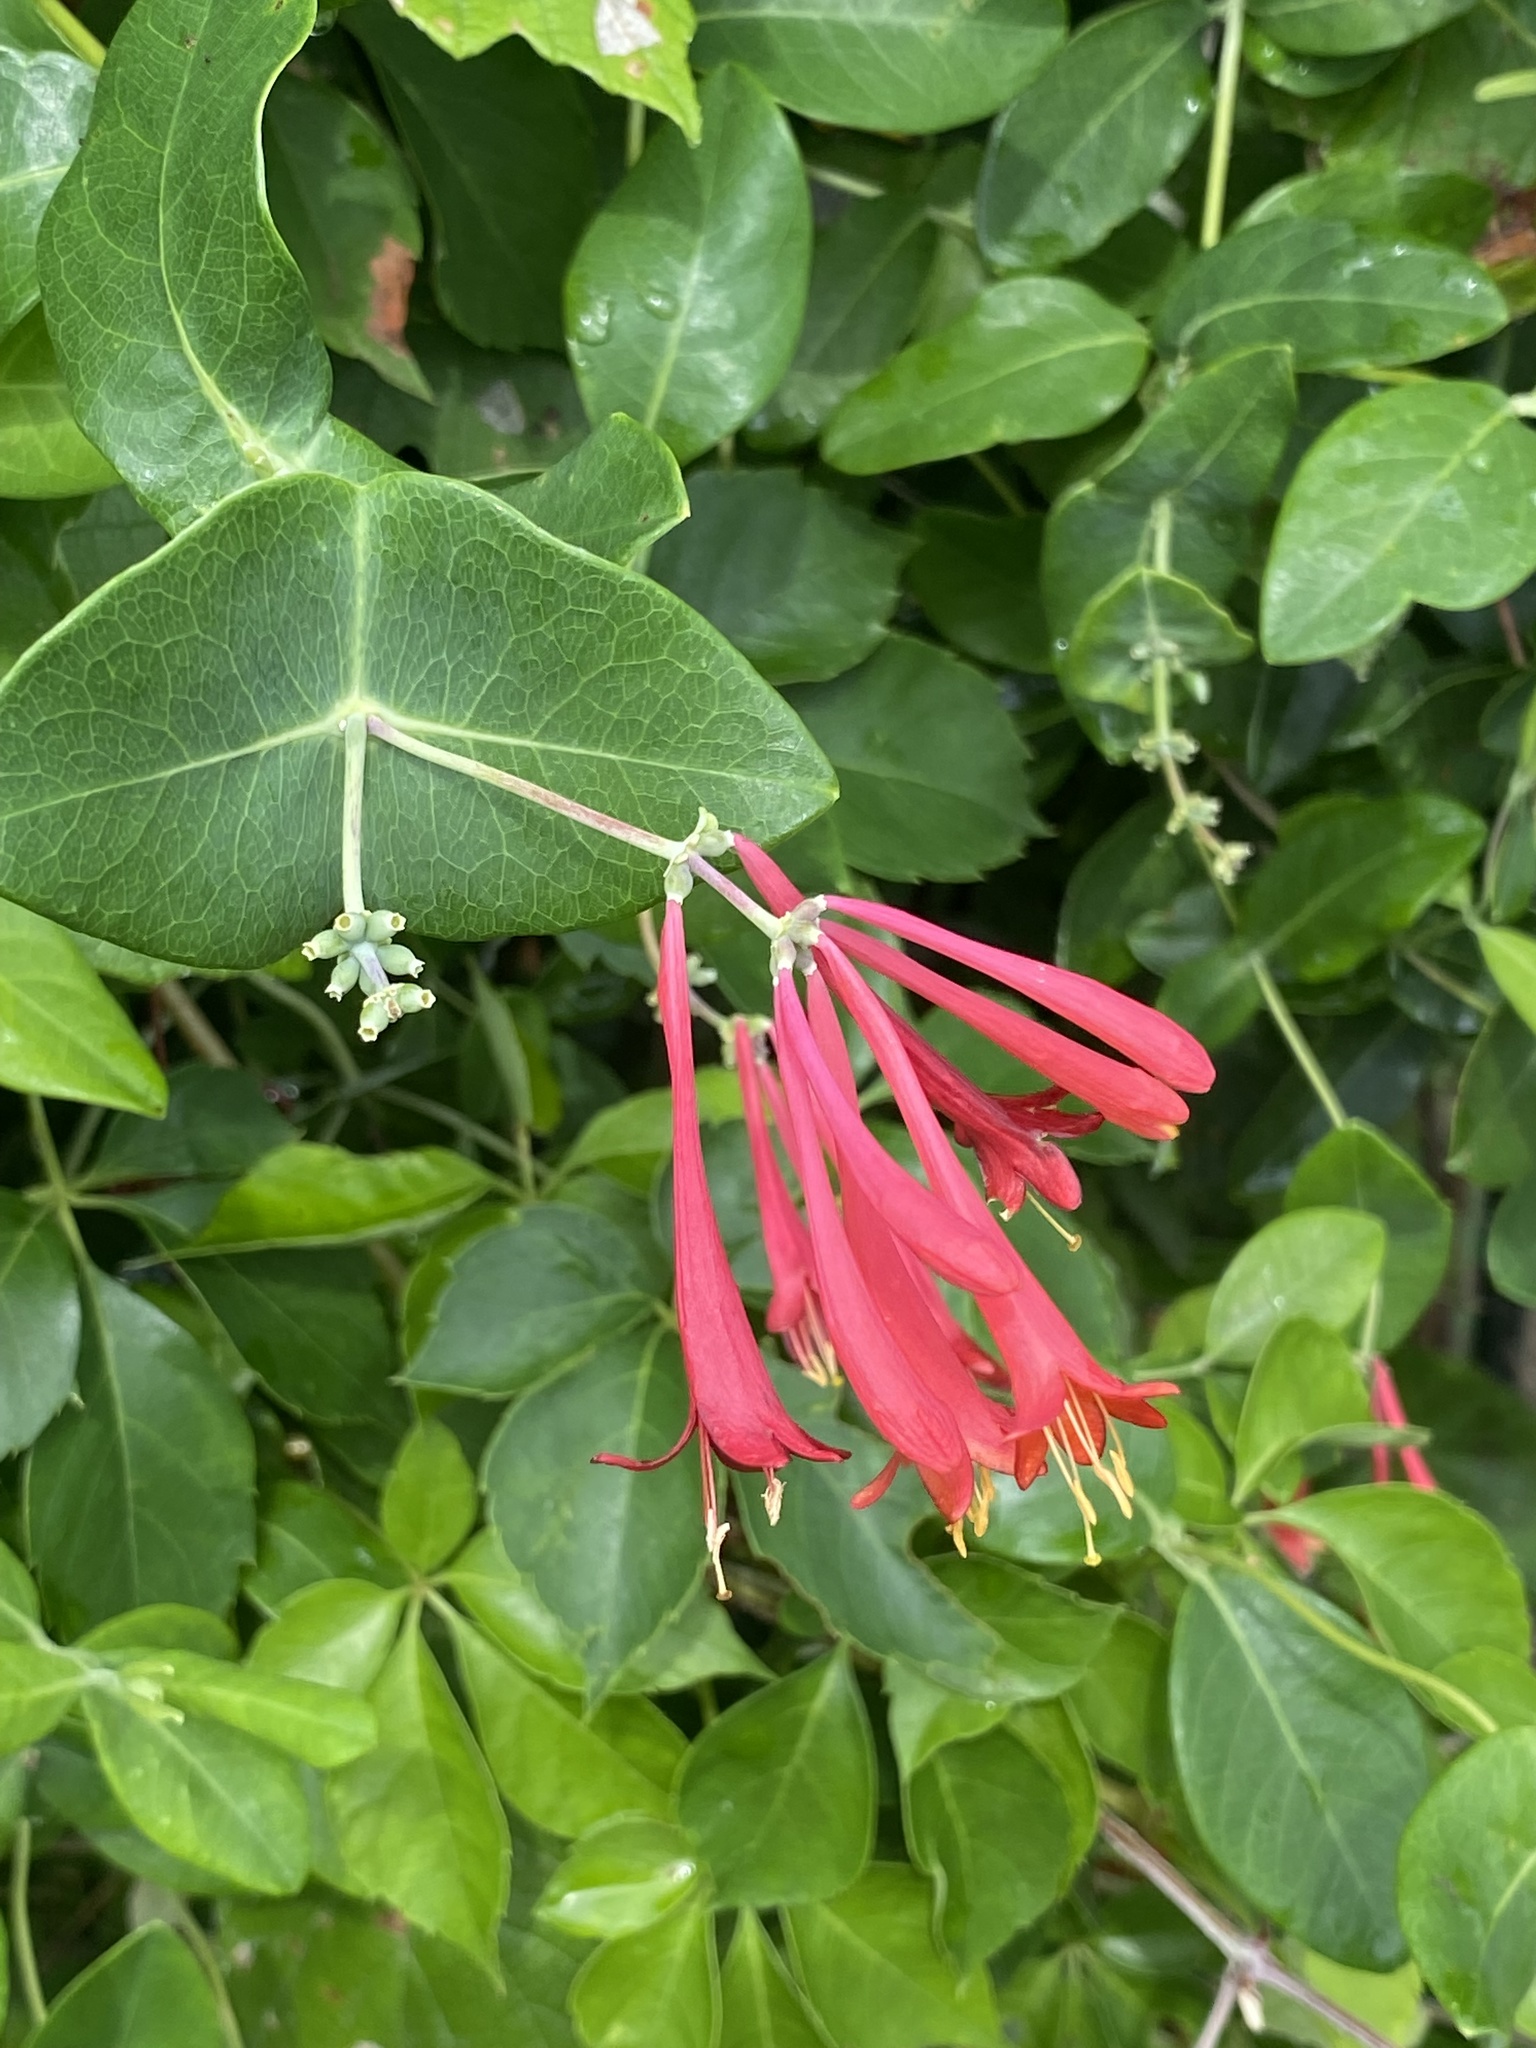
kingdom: Plantae
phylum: Tracheophyta
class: Magnoliopsida
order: Dipsacales
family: Caprifoliaceae
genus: Lonicera
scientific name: Lonicera sempervirens
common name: Coral honeysuckle
